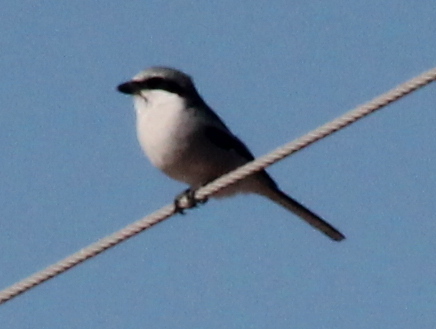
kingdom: Animalia
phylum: Chordata
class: Aves
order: Passeriformes
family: Laniidae
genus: Lanius
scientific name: Lanius ludovicianus
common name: Loggerhead shrike
